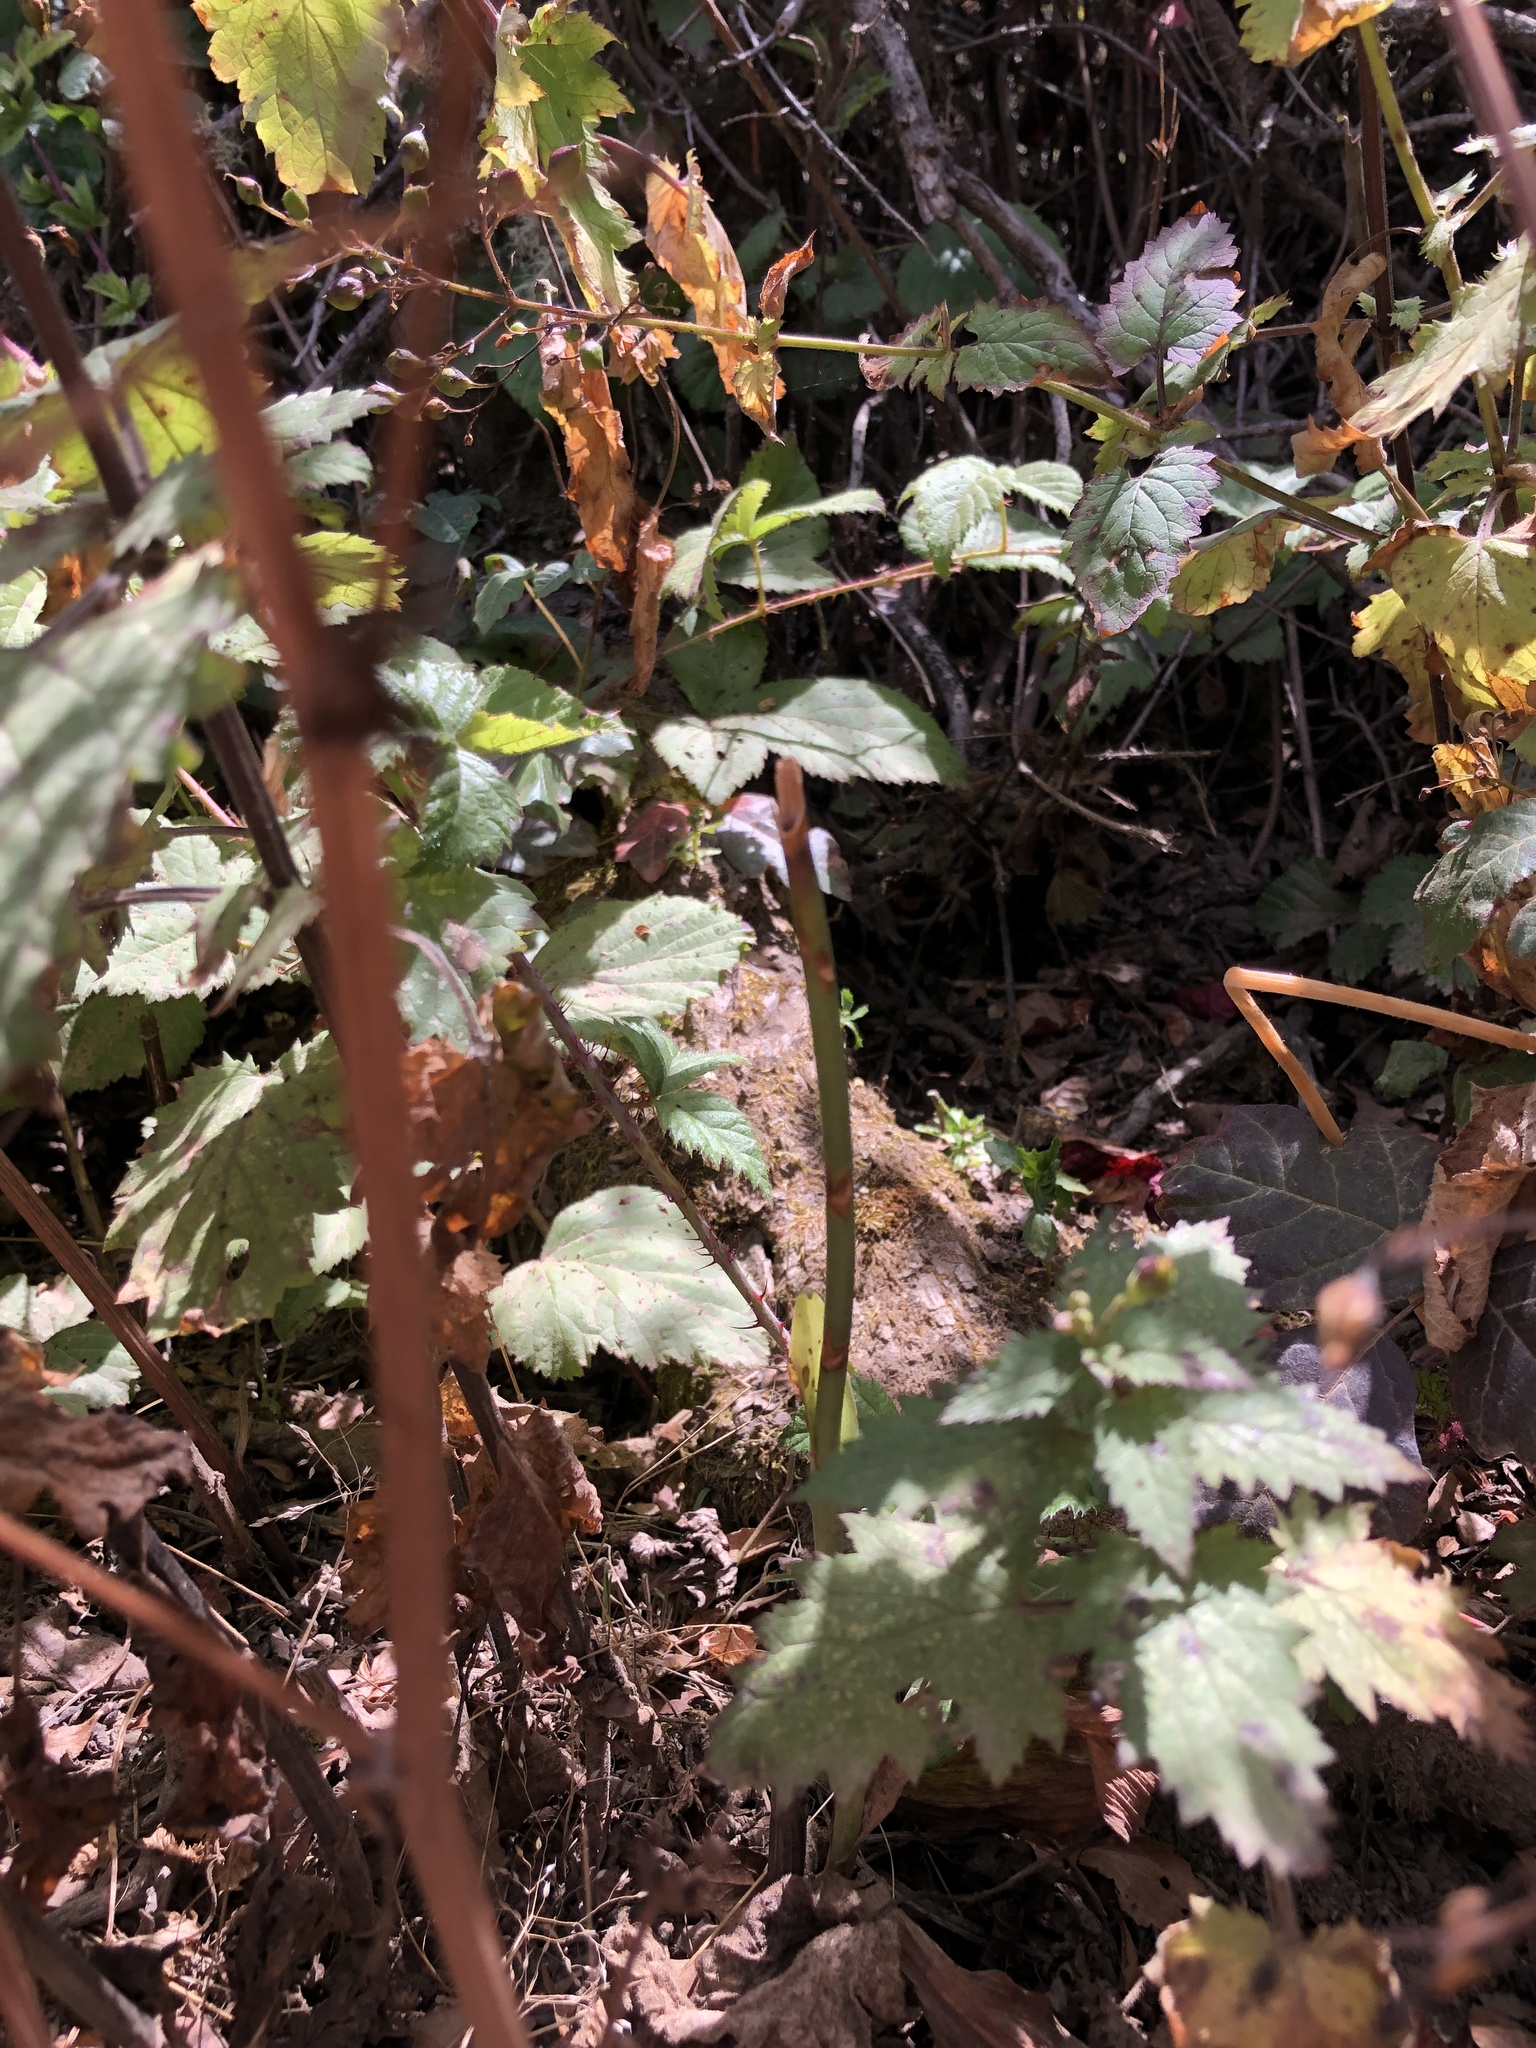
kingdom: Plantae
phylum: Tracheophyta
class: Liliopsida
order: Asparagales
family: Orchidaceae
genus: Platanthera
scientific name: Platanthera elegans
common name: Coast piperia
